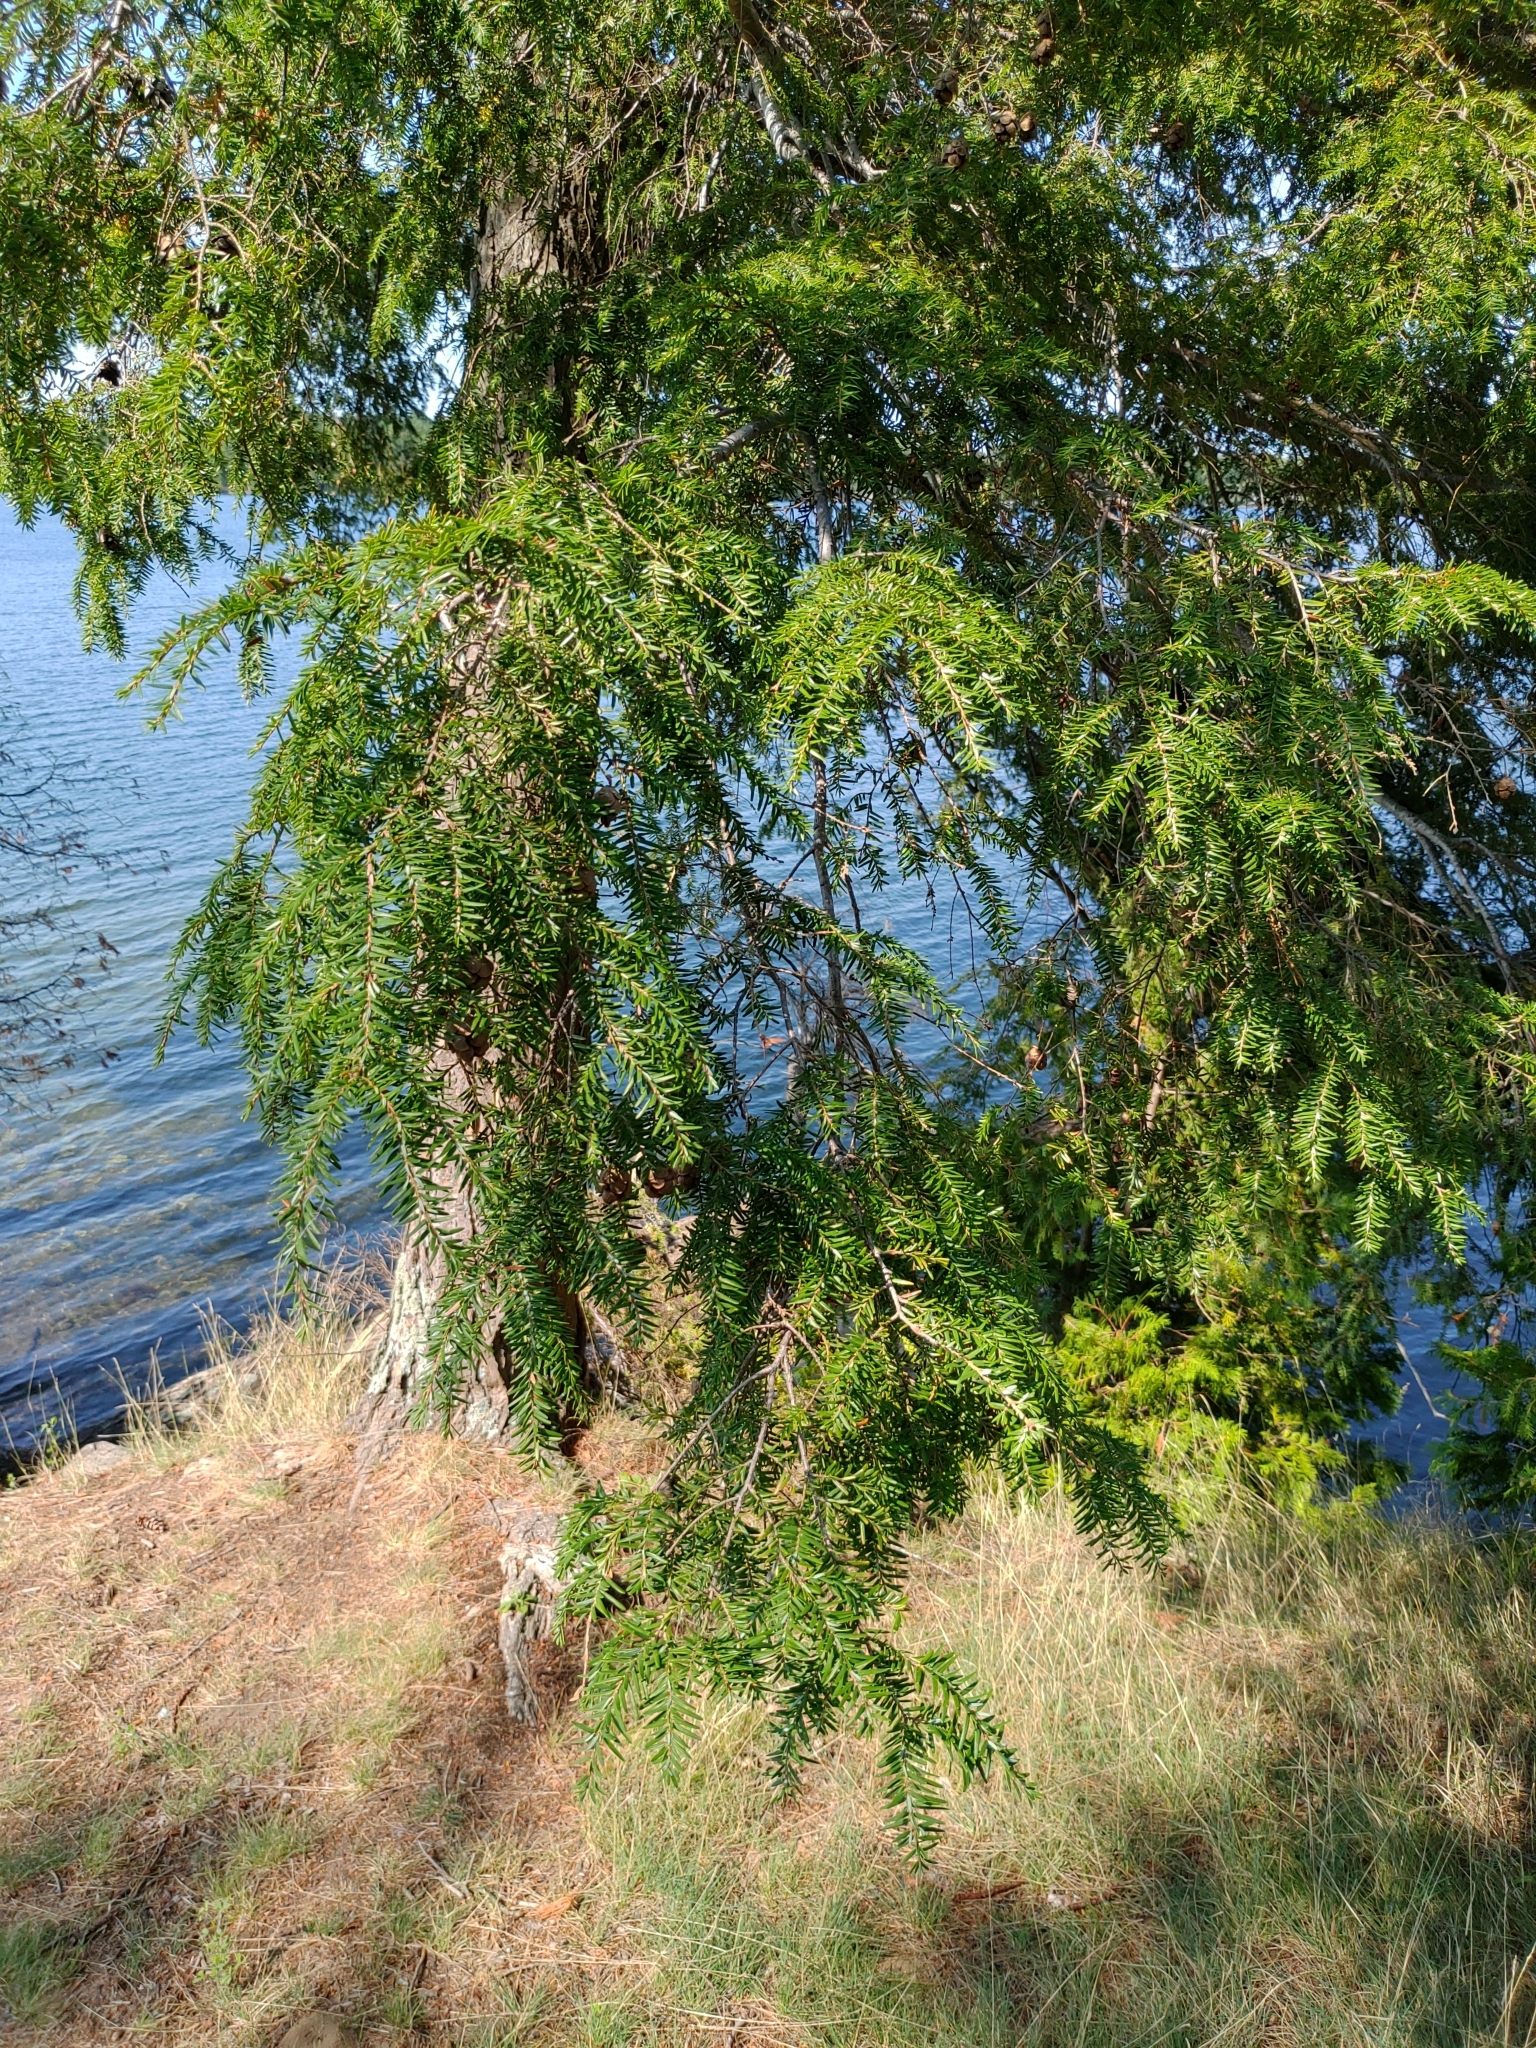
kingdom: Plantae
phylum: Tracheophyta
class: Pinopsida
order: Pinales
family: Pinaceae
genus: Tsuga
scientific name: Tsuga canadensis
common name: Eastern hemlock
